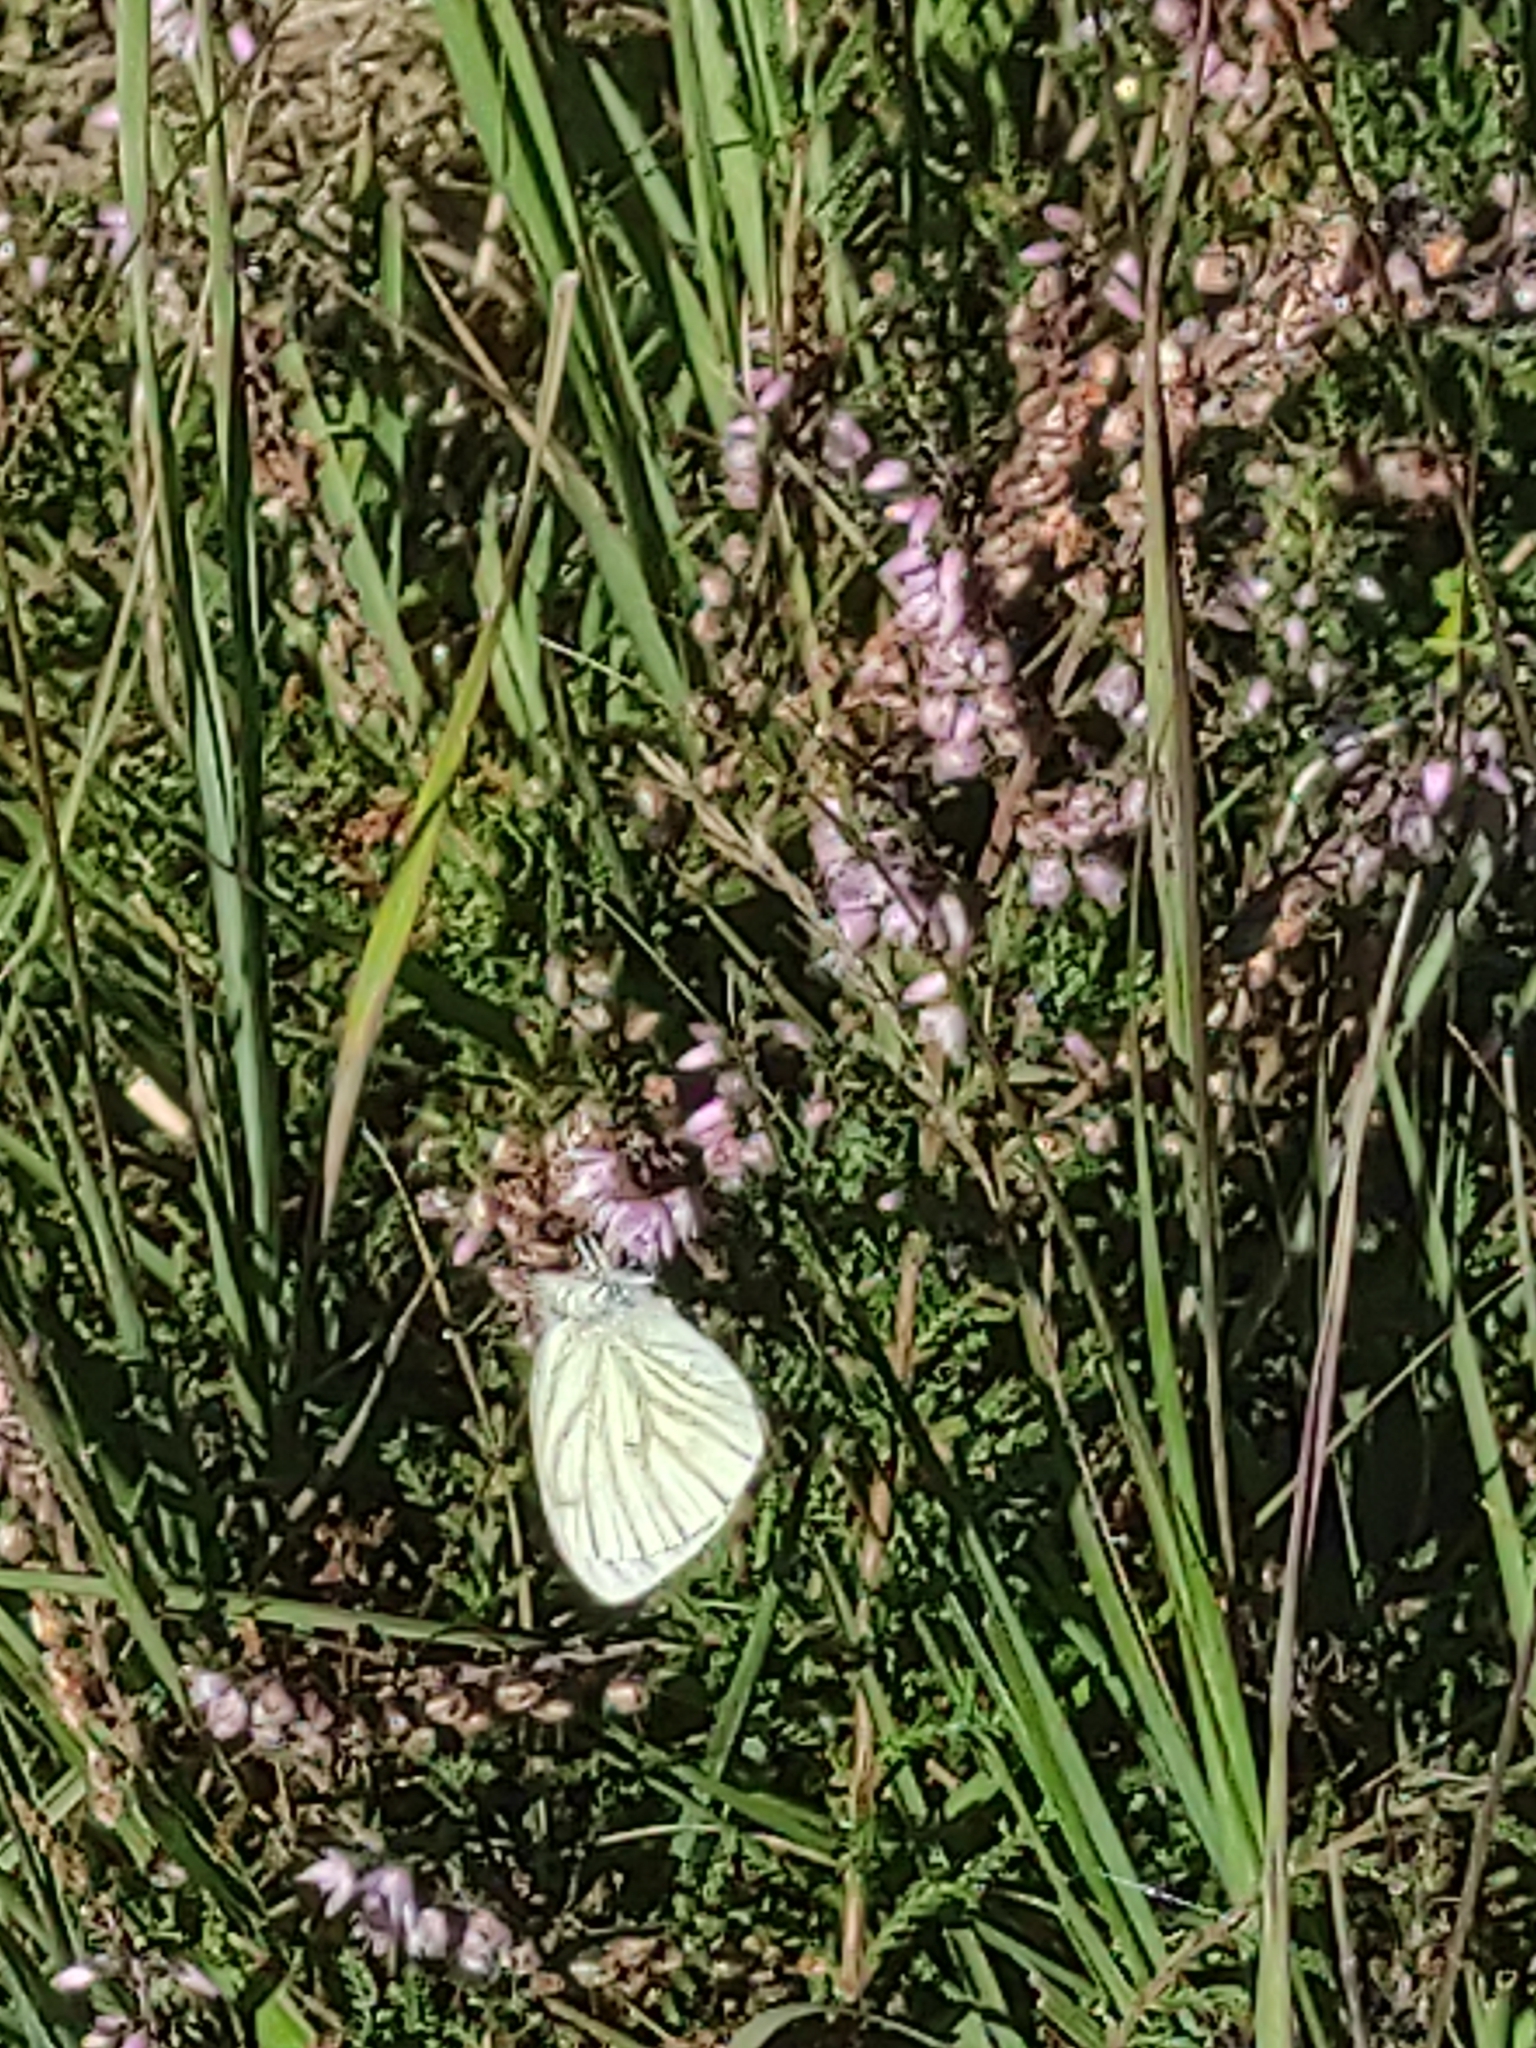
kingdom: Animalia
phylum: Arthropoda
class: Insecta
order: Lepidoptera
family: Pieridae
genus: Pieris
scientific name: Pieris napi
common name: Green-veined white
